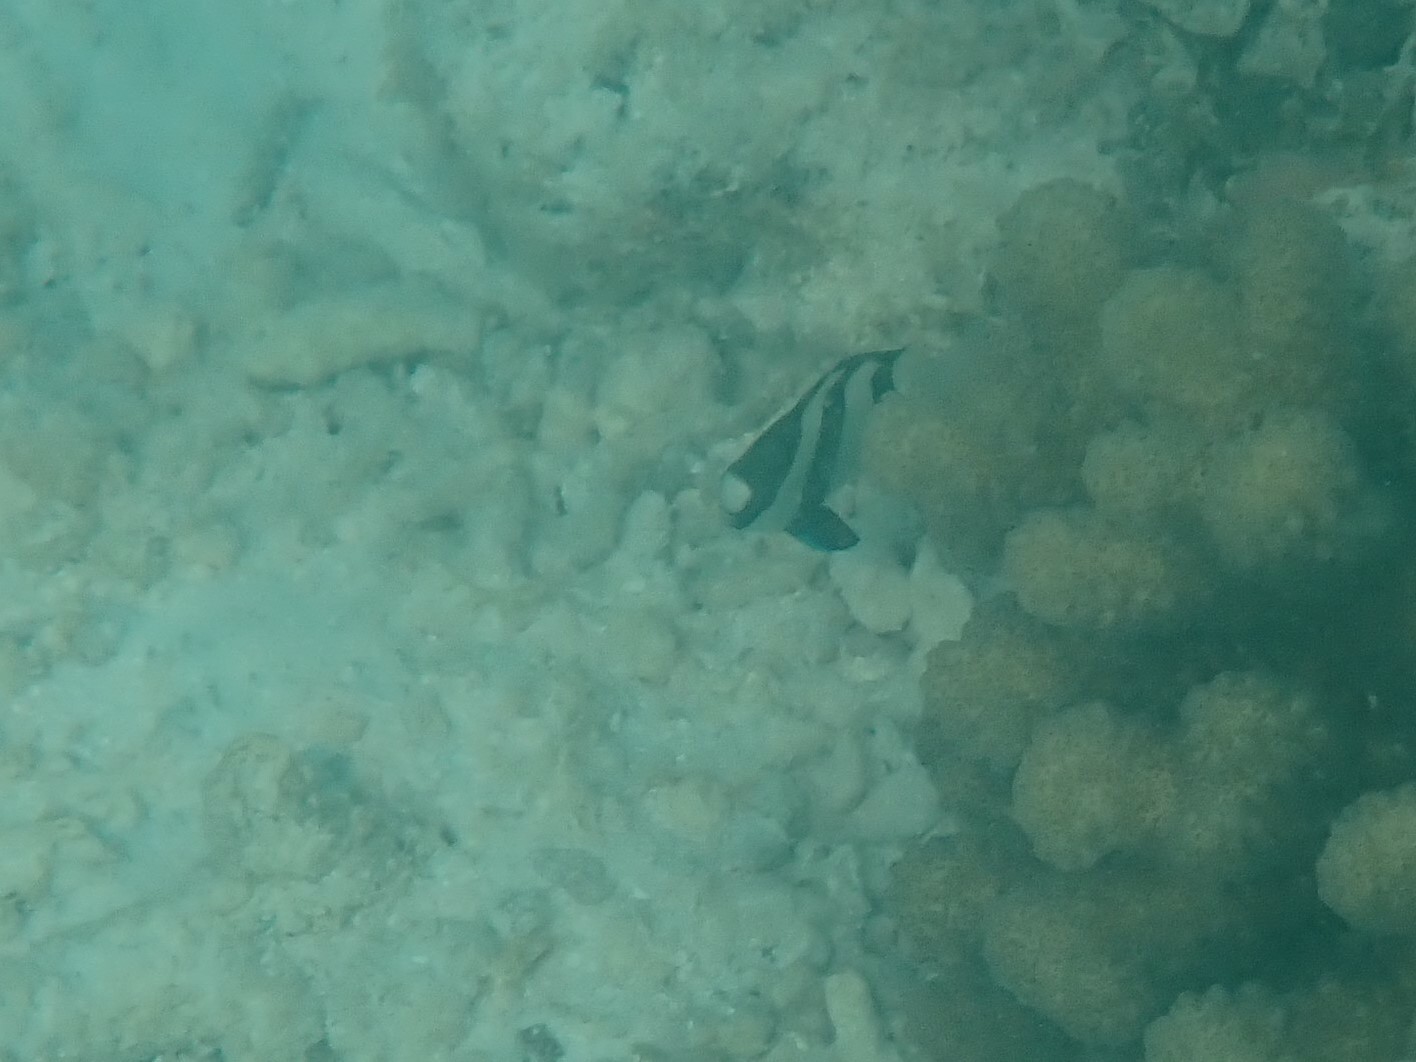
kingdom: Animalia
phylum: Chordata
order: Perciformes
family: Pomacentridae
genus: Dascyllus
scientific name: Dascyllus abudafur
